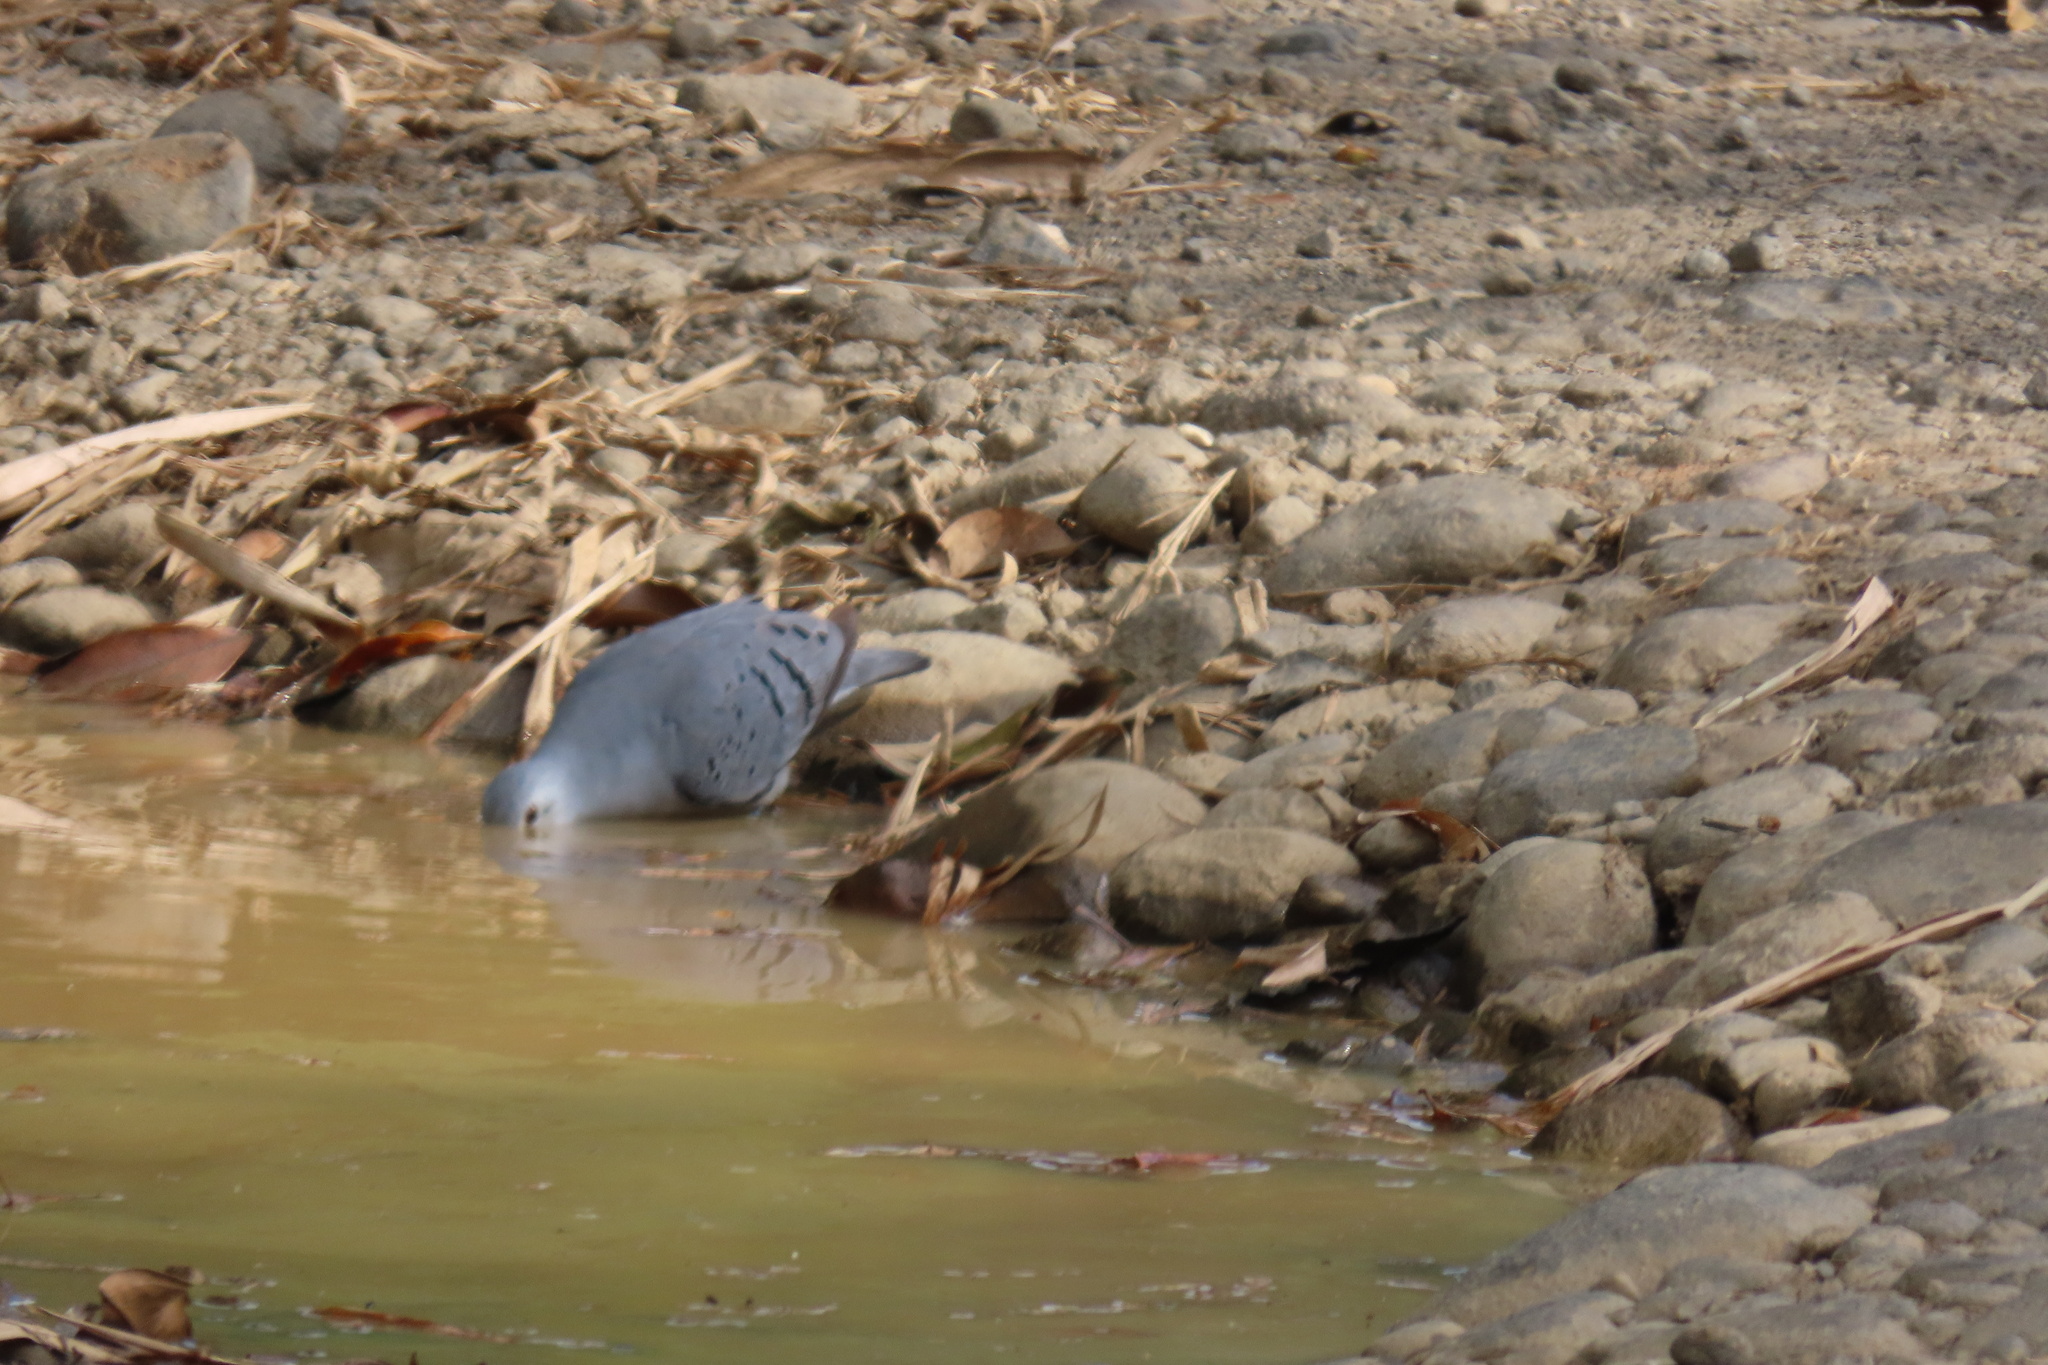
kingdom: Animalia
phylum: Chordata
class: Aves
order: Columbiformes
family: Columbidae
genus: Claravis
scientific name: Claravis pretiosa
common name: Blue ground-dove
